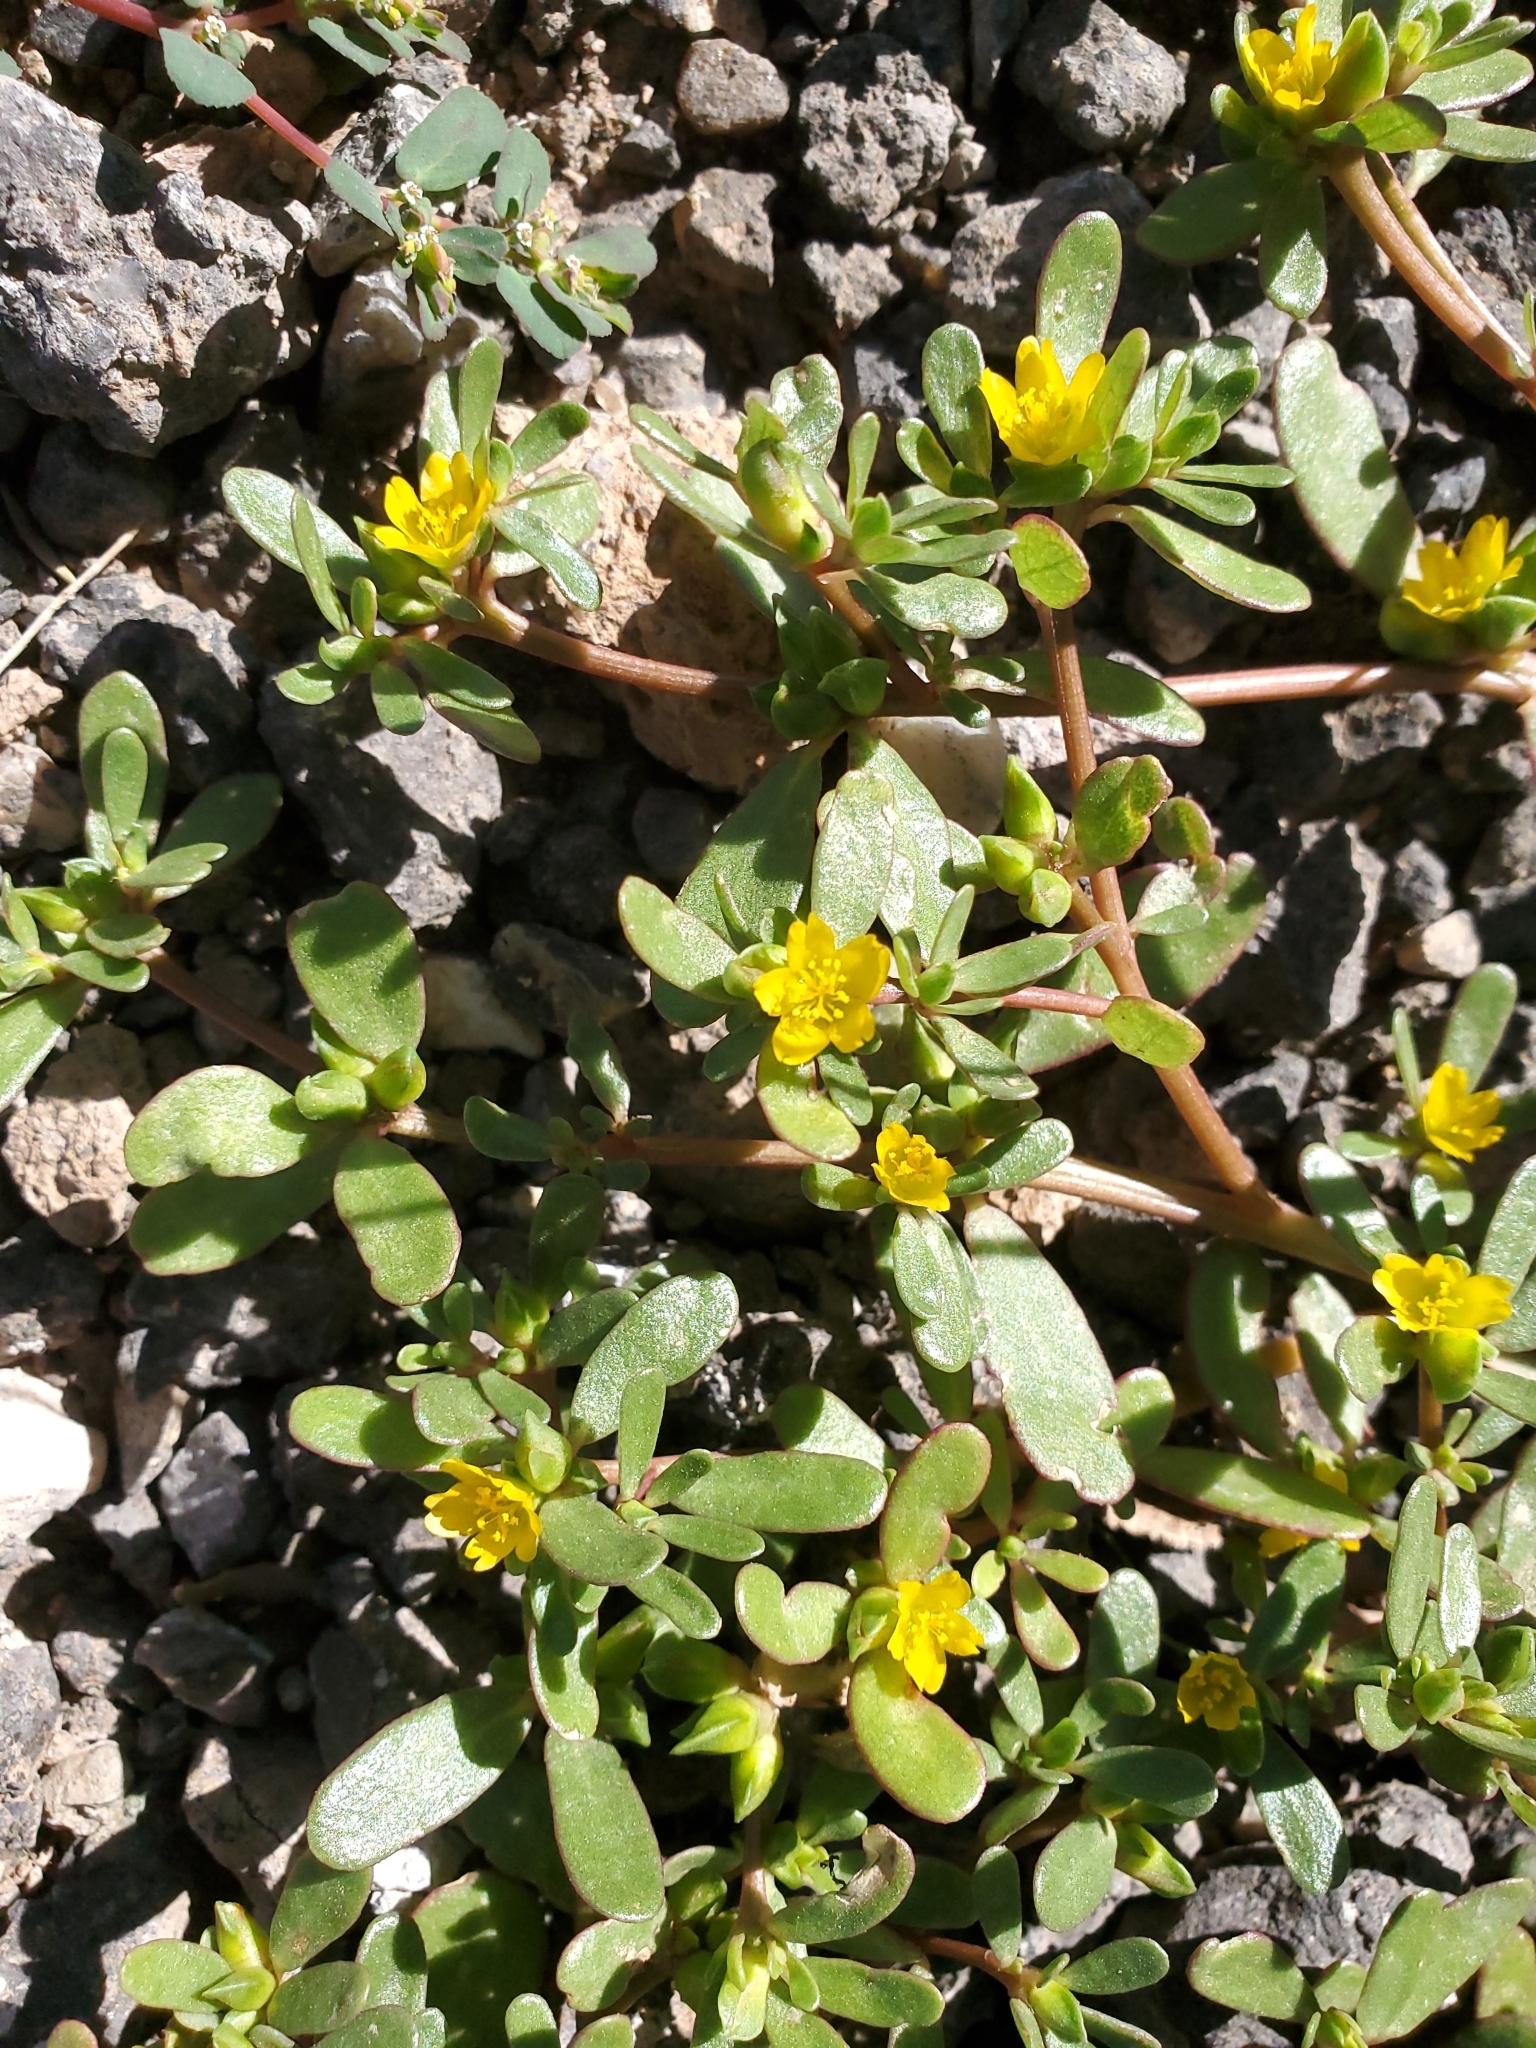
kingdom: Plantae
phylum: Tracheophyta
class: Magnoliopsida
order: Caryophyllales
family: Portulacaceae
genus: Portulaca
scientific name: Portulaca oleracea
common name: Common purslane
